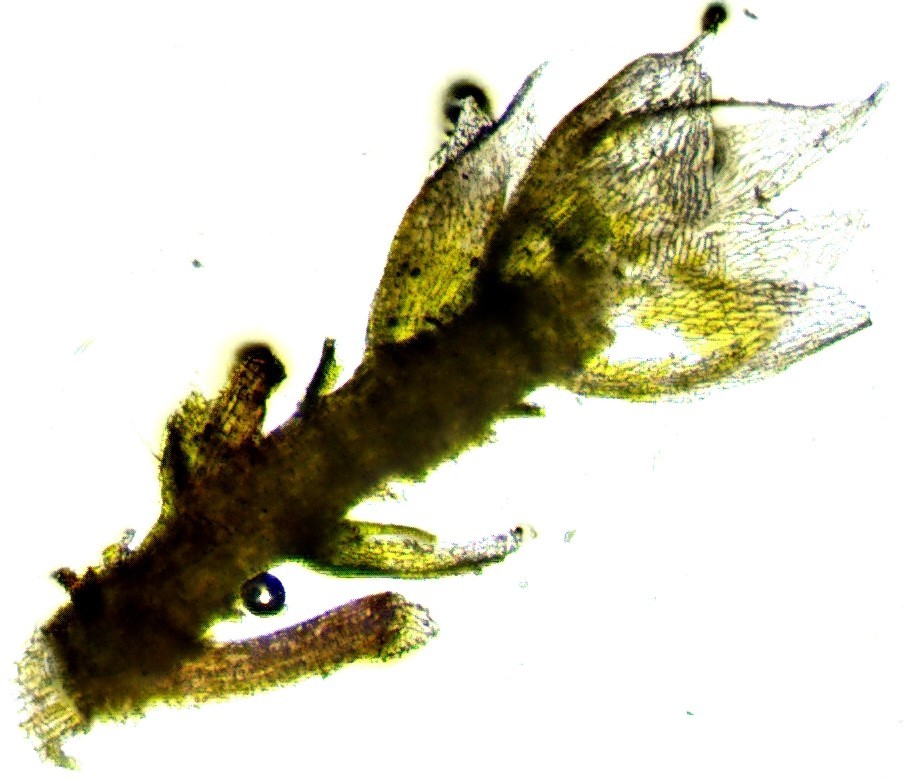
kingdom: Plantae
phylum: Bryophyta
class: Bryopsida
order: Bryales
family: Bryaceae
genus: Bryum
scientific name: Bryum argenteum
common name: Silver-moss
